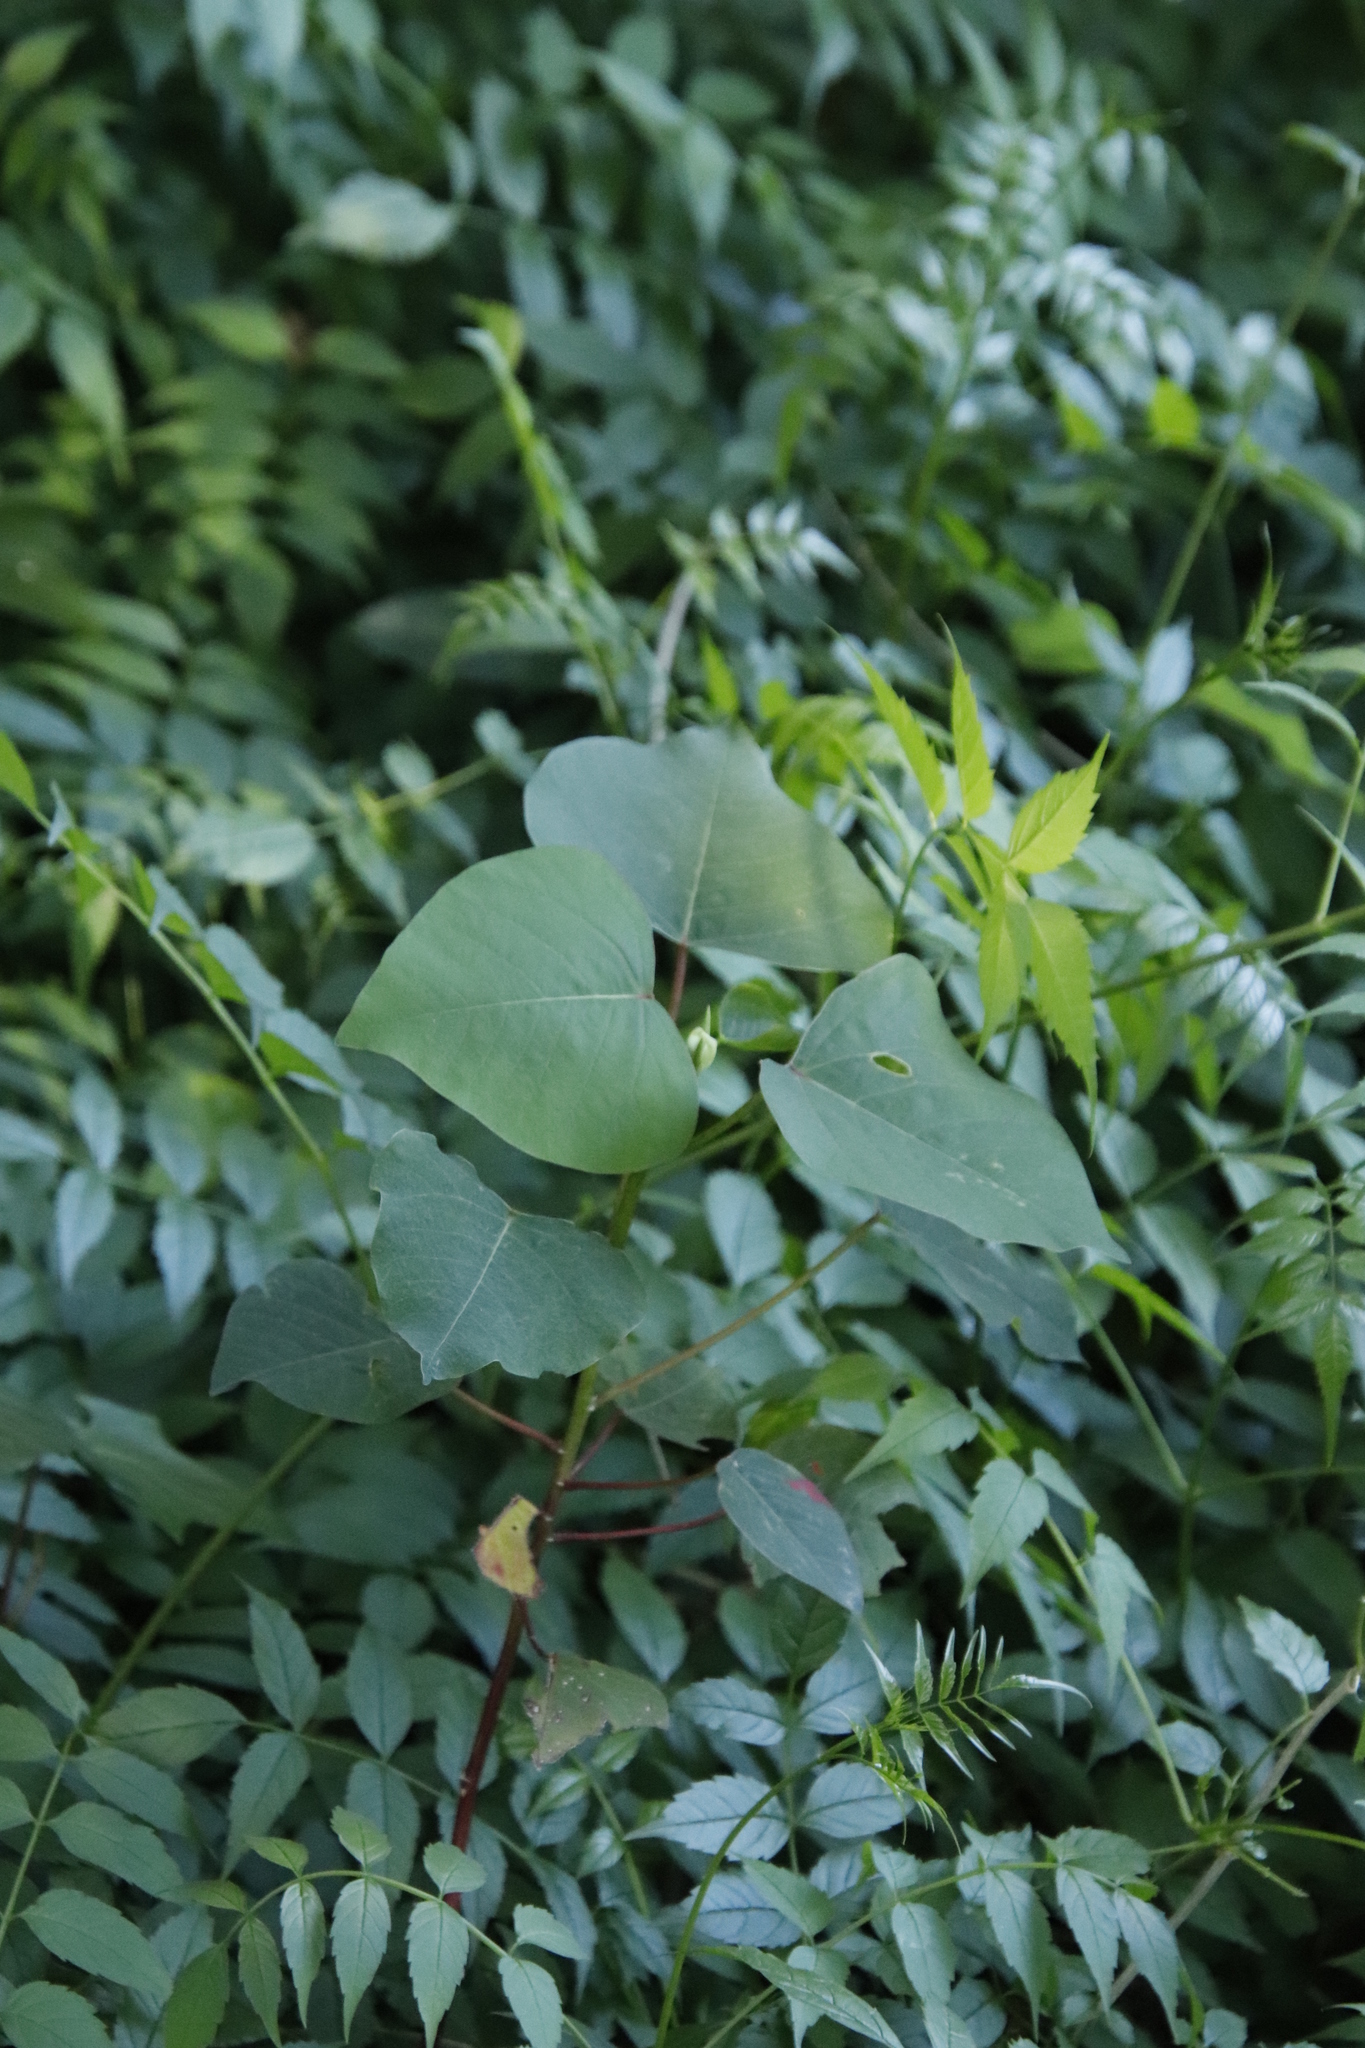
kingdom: Plantae
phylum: Tracheophyta
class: Magnoliopsida
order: Malpighiales
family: Euphorbiaceae
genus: Homalanthus
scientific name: Homalanthus populifolius
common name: Queensland poplar
